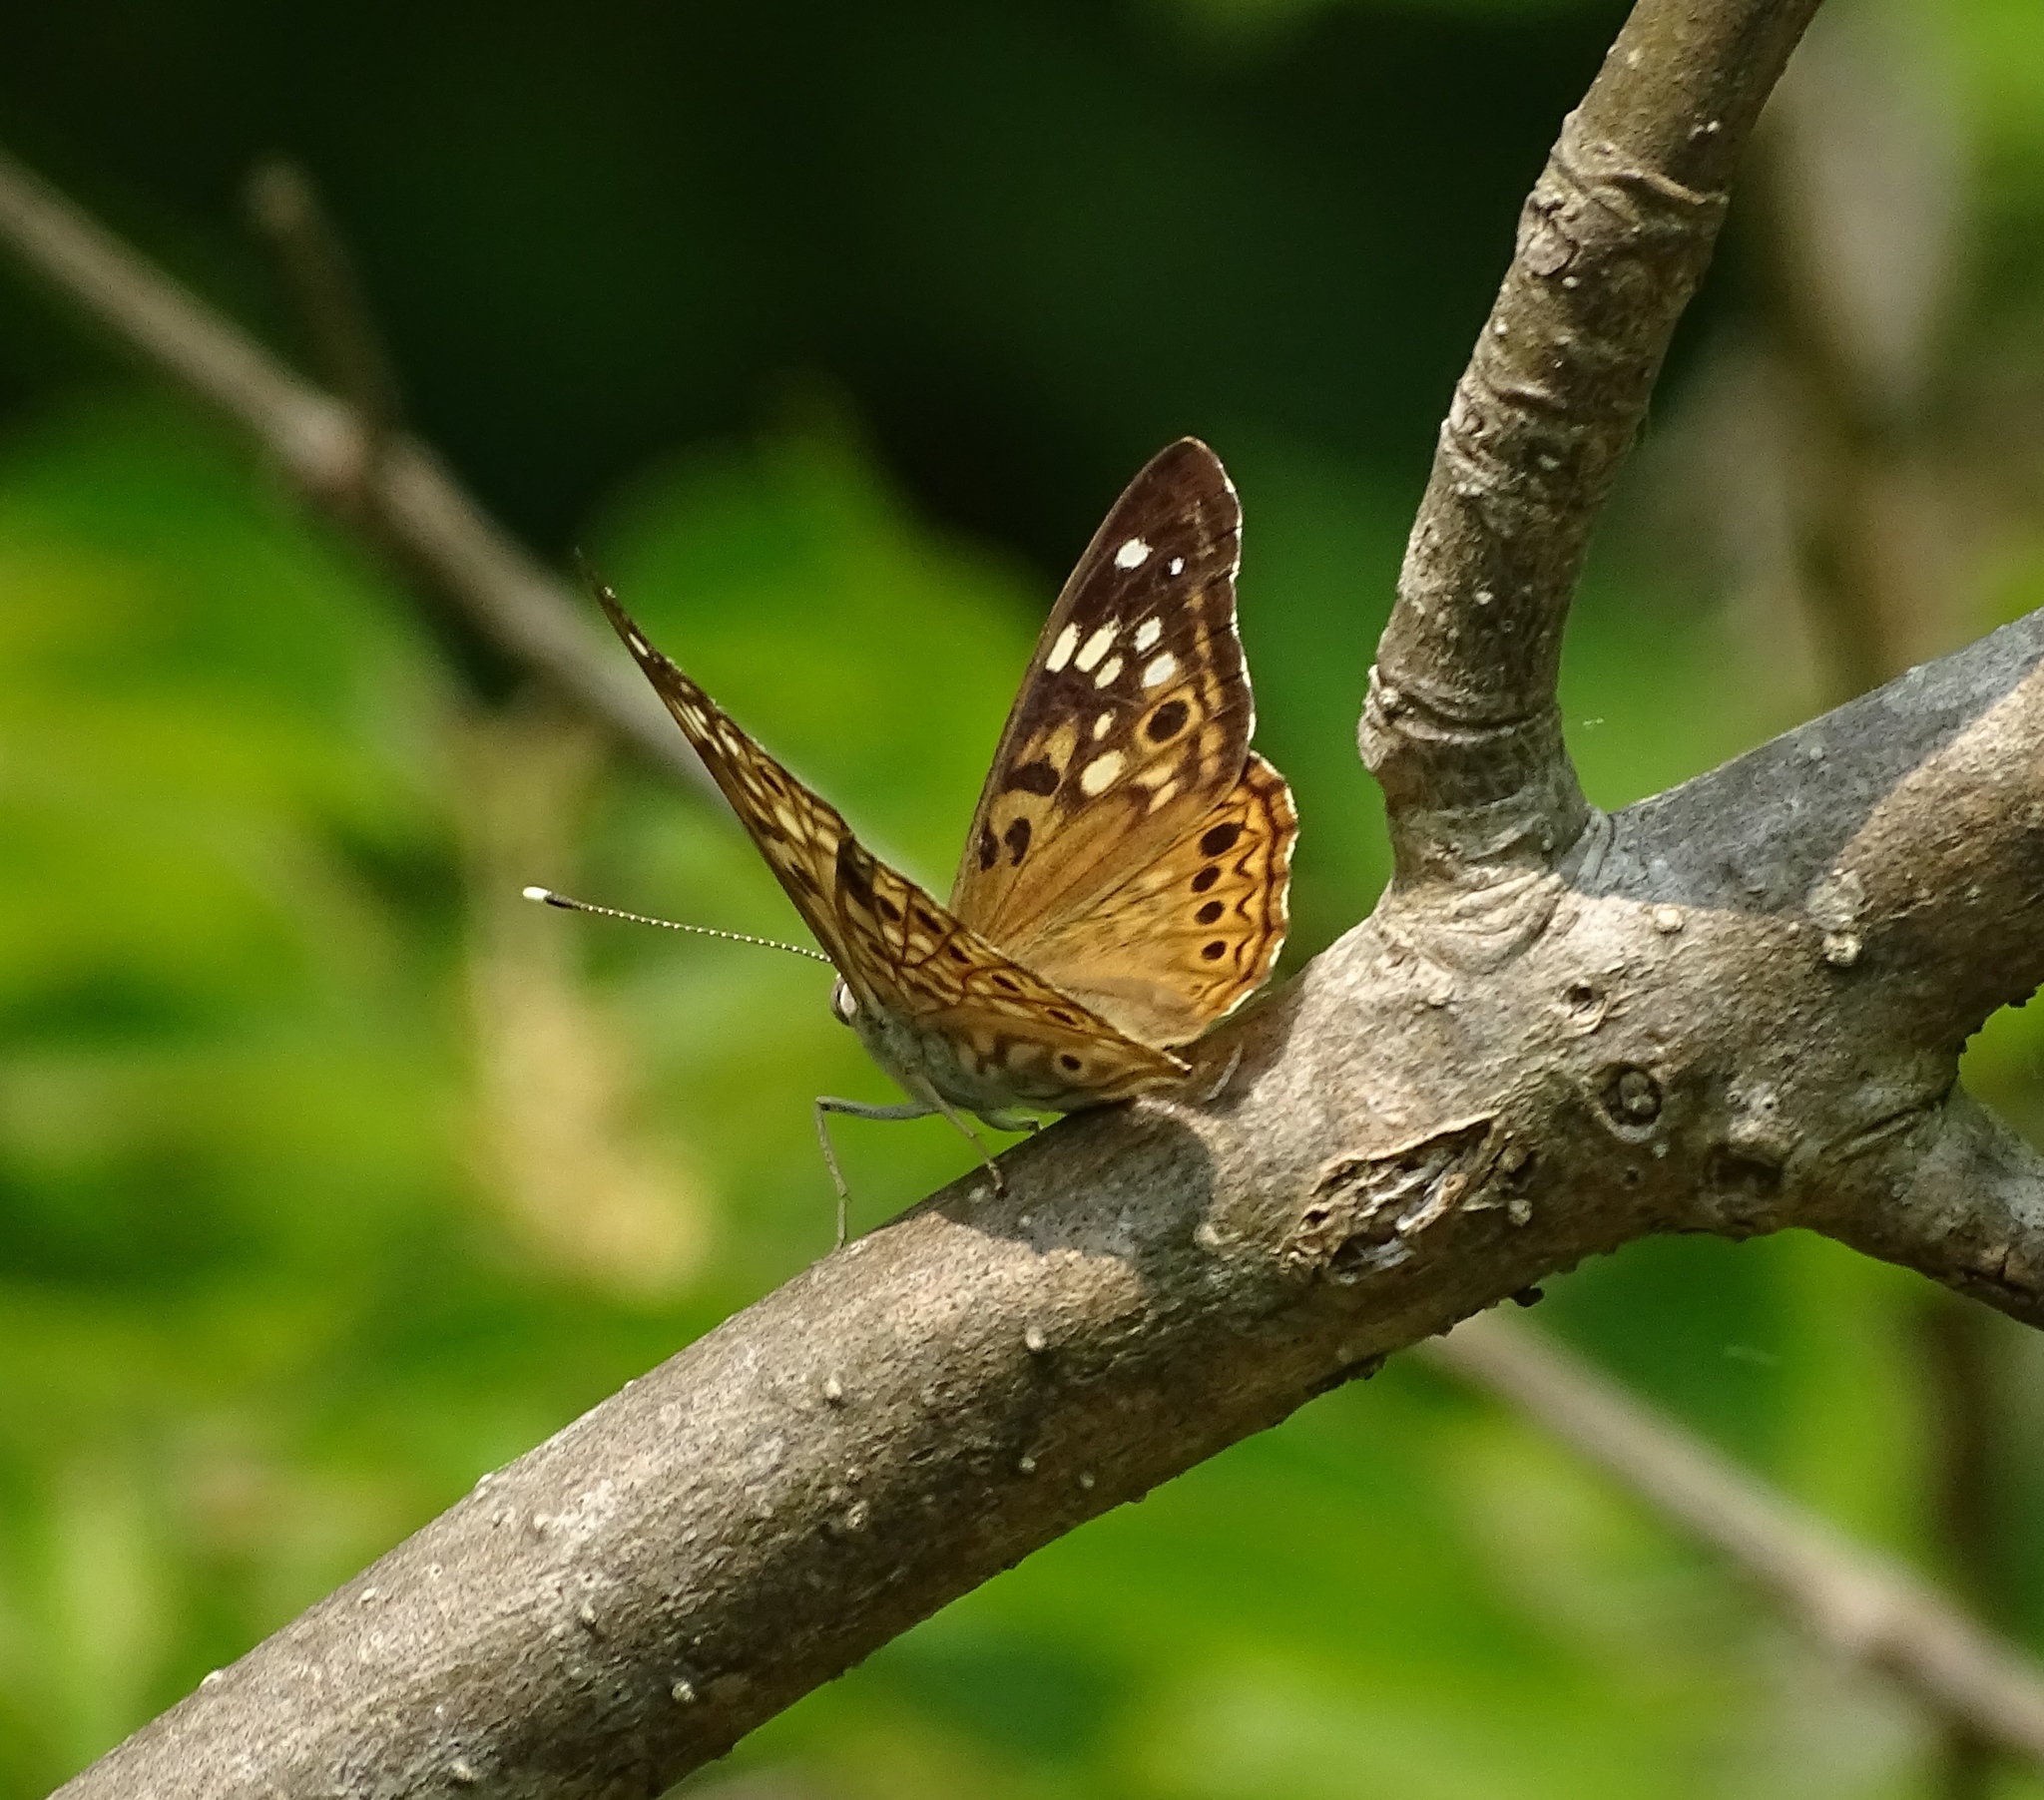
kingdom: Animalia
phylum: Arthropoda
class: Insecta
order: Lepidoptera
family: Nymphalidae
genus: Asterocampa
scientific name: Asterocampa celtis
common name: Hackberry emperor
